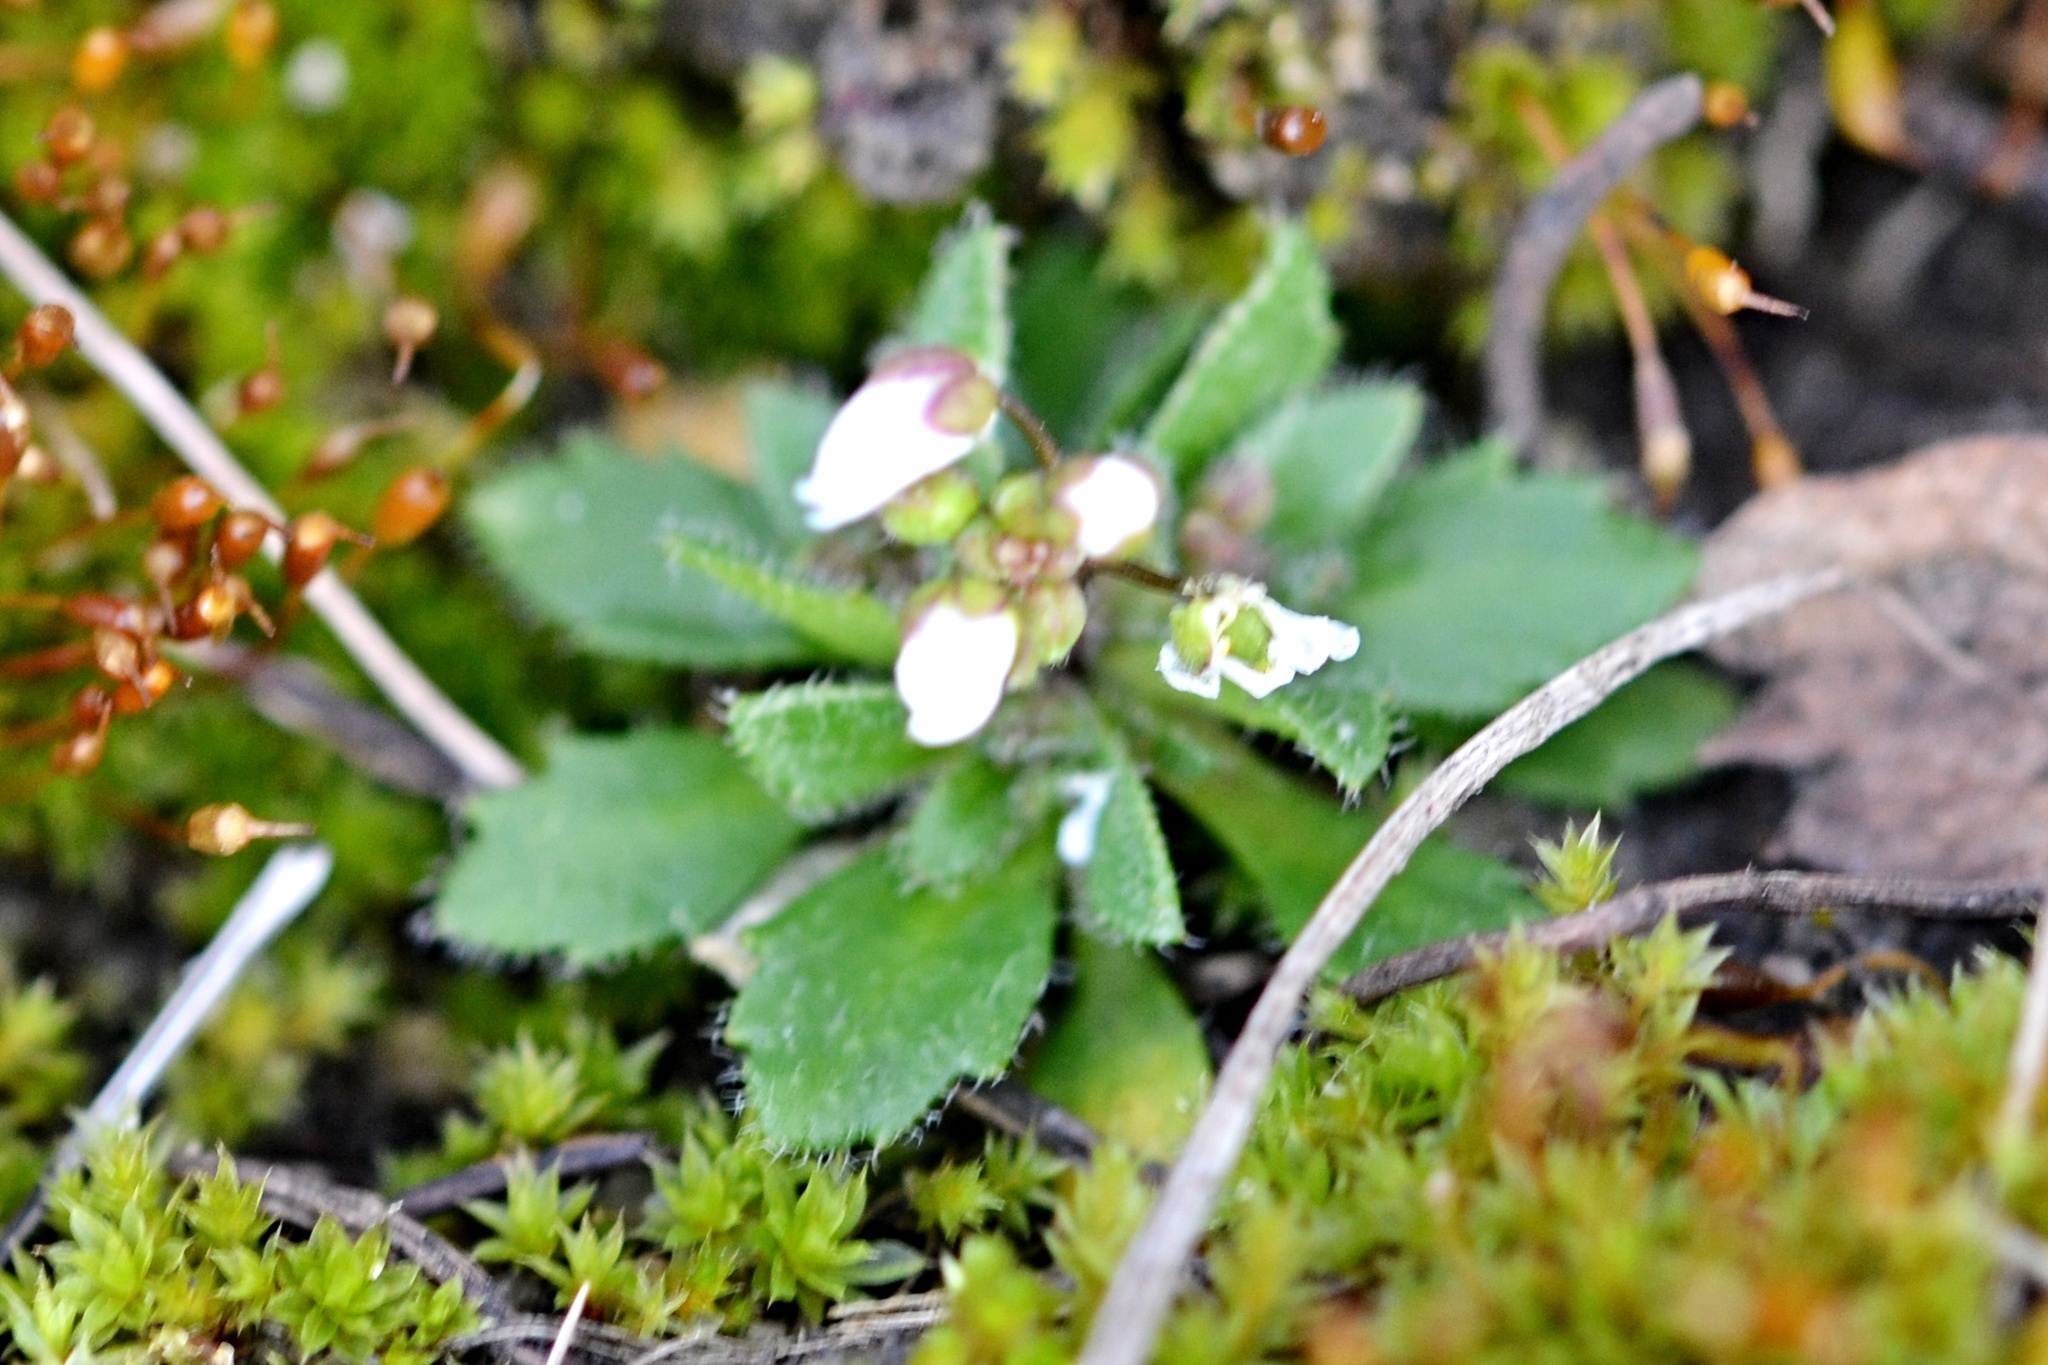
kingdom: Plantae
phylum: Tracheophyta
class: Magnoliopsida
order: Brassicales
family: Brassicaceae
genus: Draba
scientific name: Draba verna
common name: Spring draba
